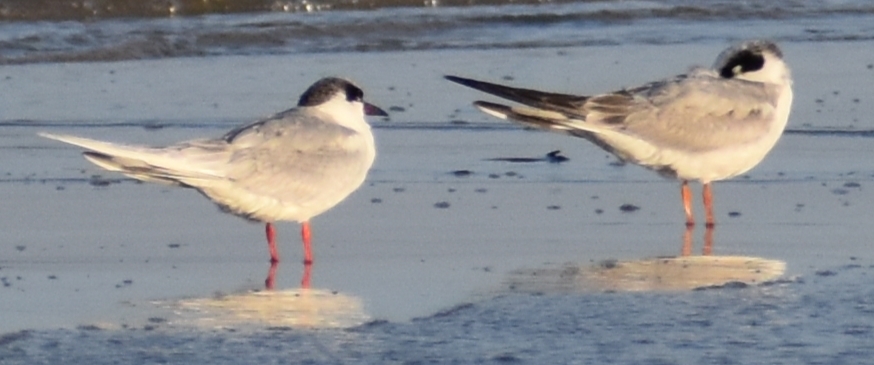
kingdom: Animalia
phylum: Chordata
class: Aves
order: Charadriiformes
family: Laridae
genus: Sterna
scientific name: Sterna forsteri
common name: Forster's tern
